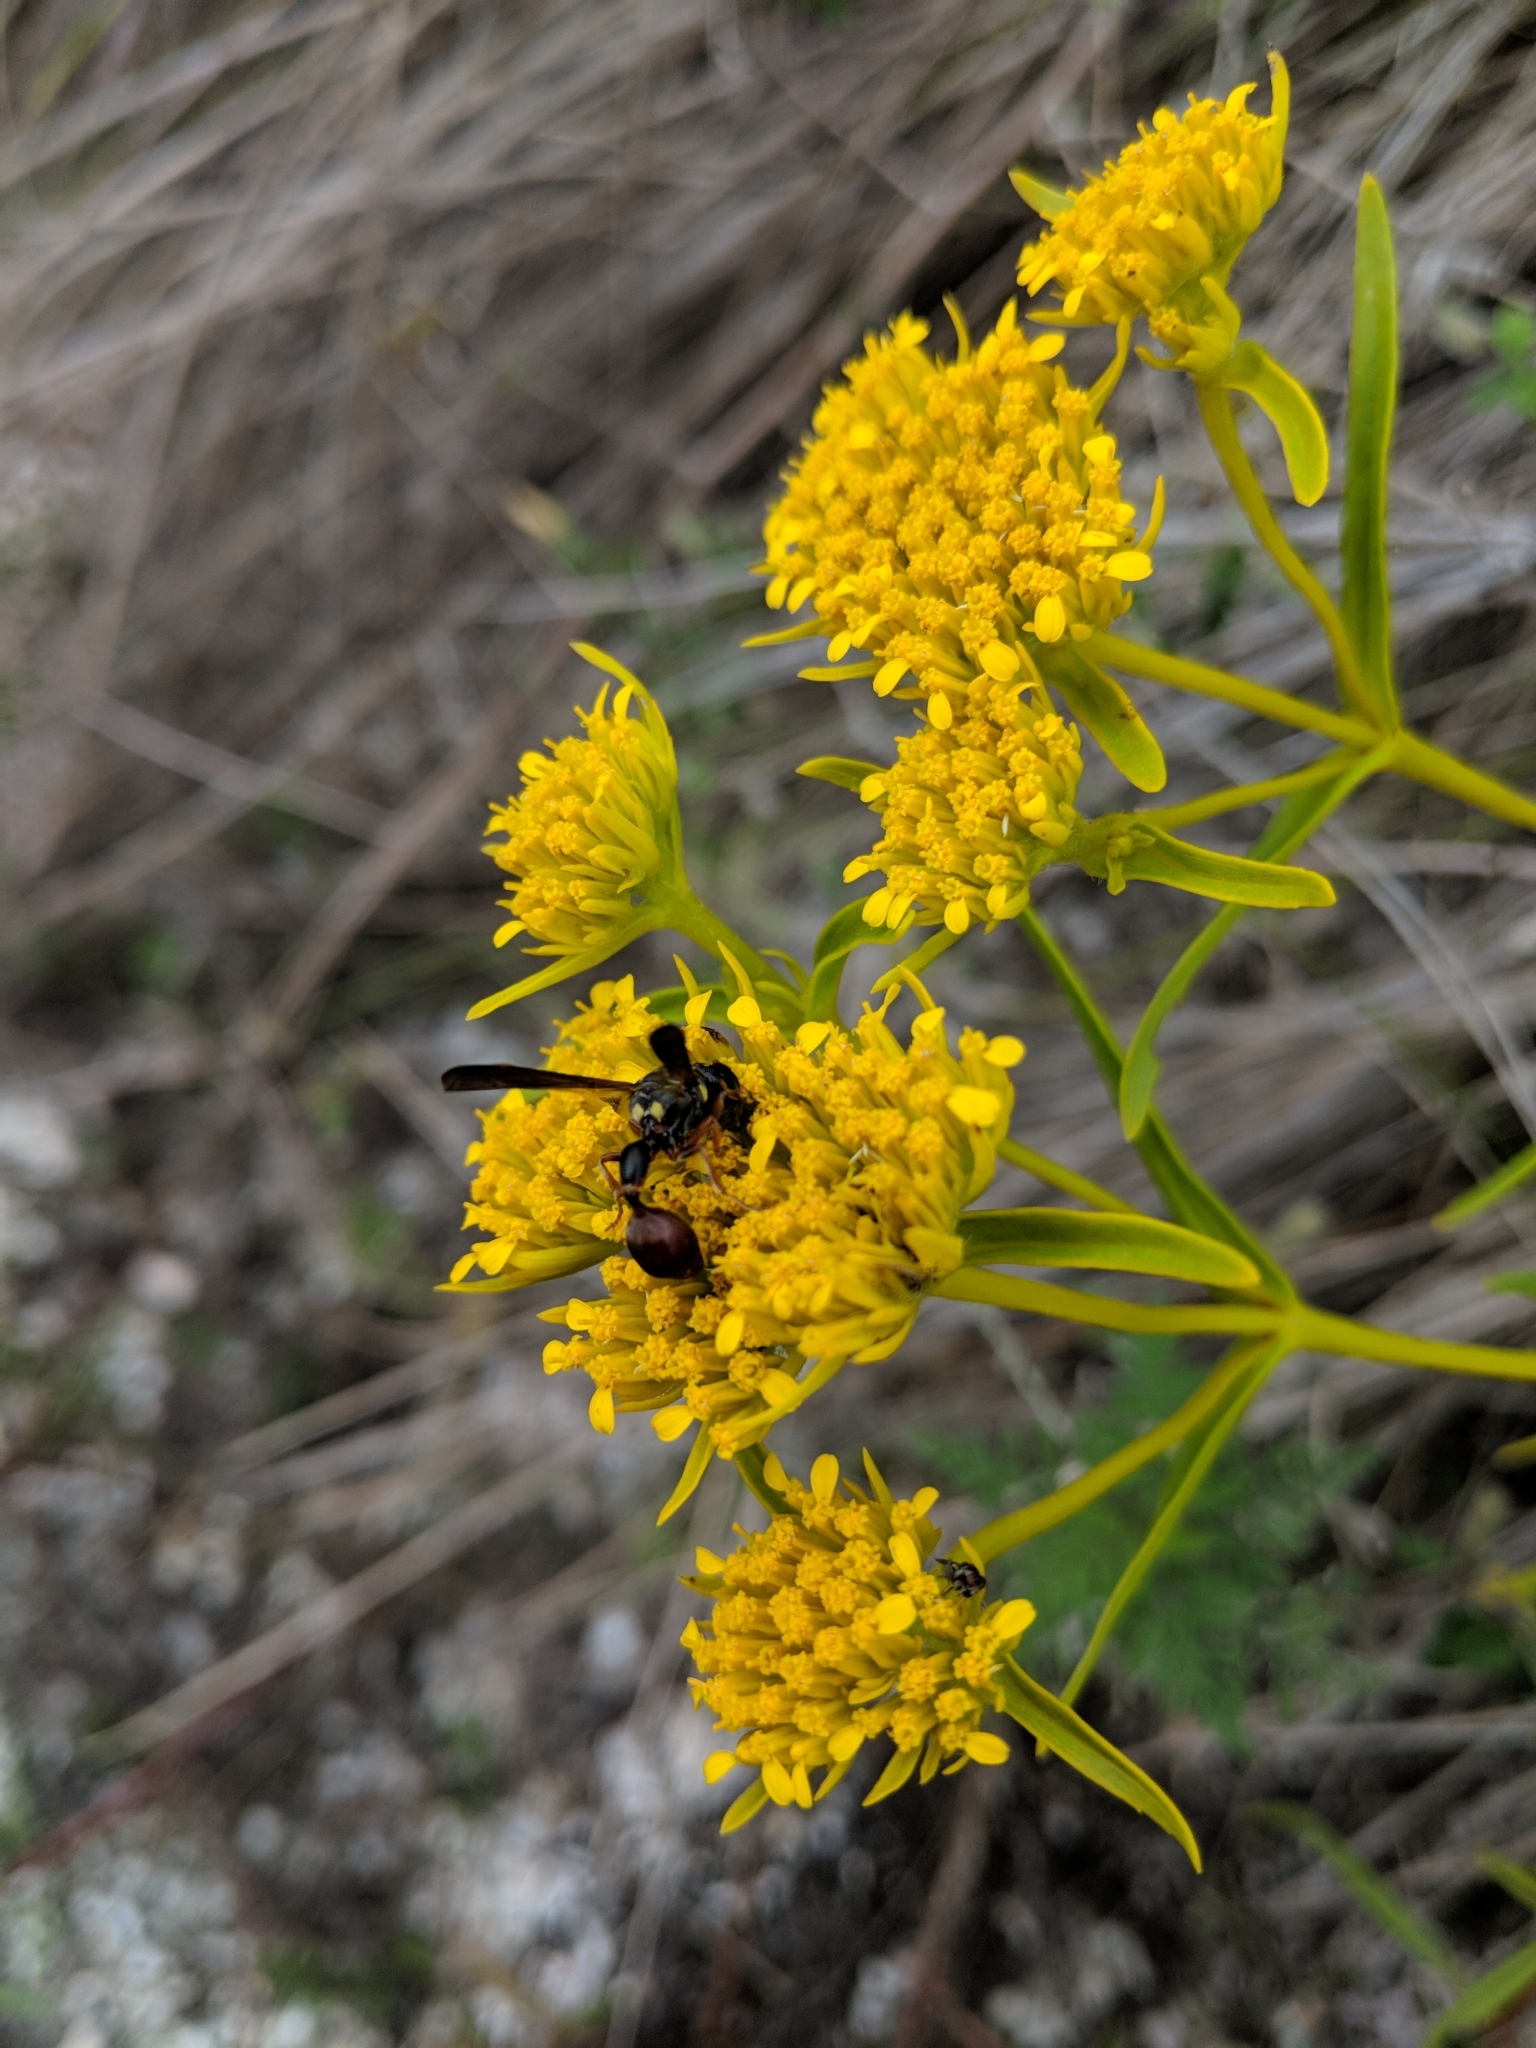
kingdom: Animalia
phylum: Arthropoda
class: Insecta
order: Hymenoptera
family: Eumenidae
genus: Zethus
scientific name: Zethus slossonae
